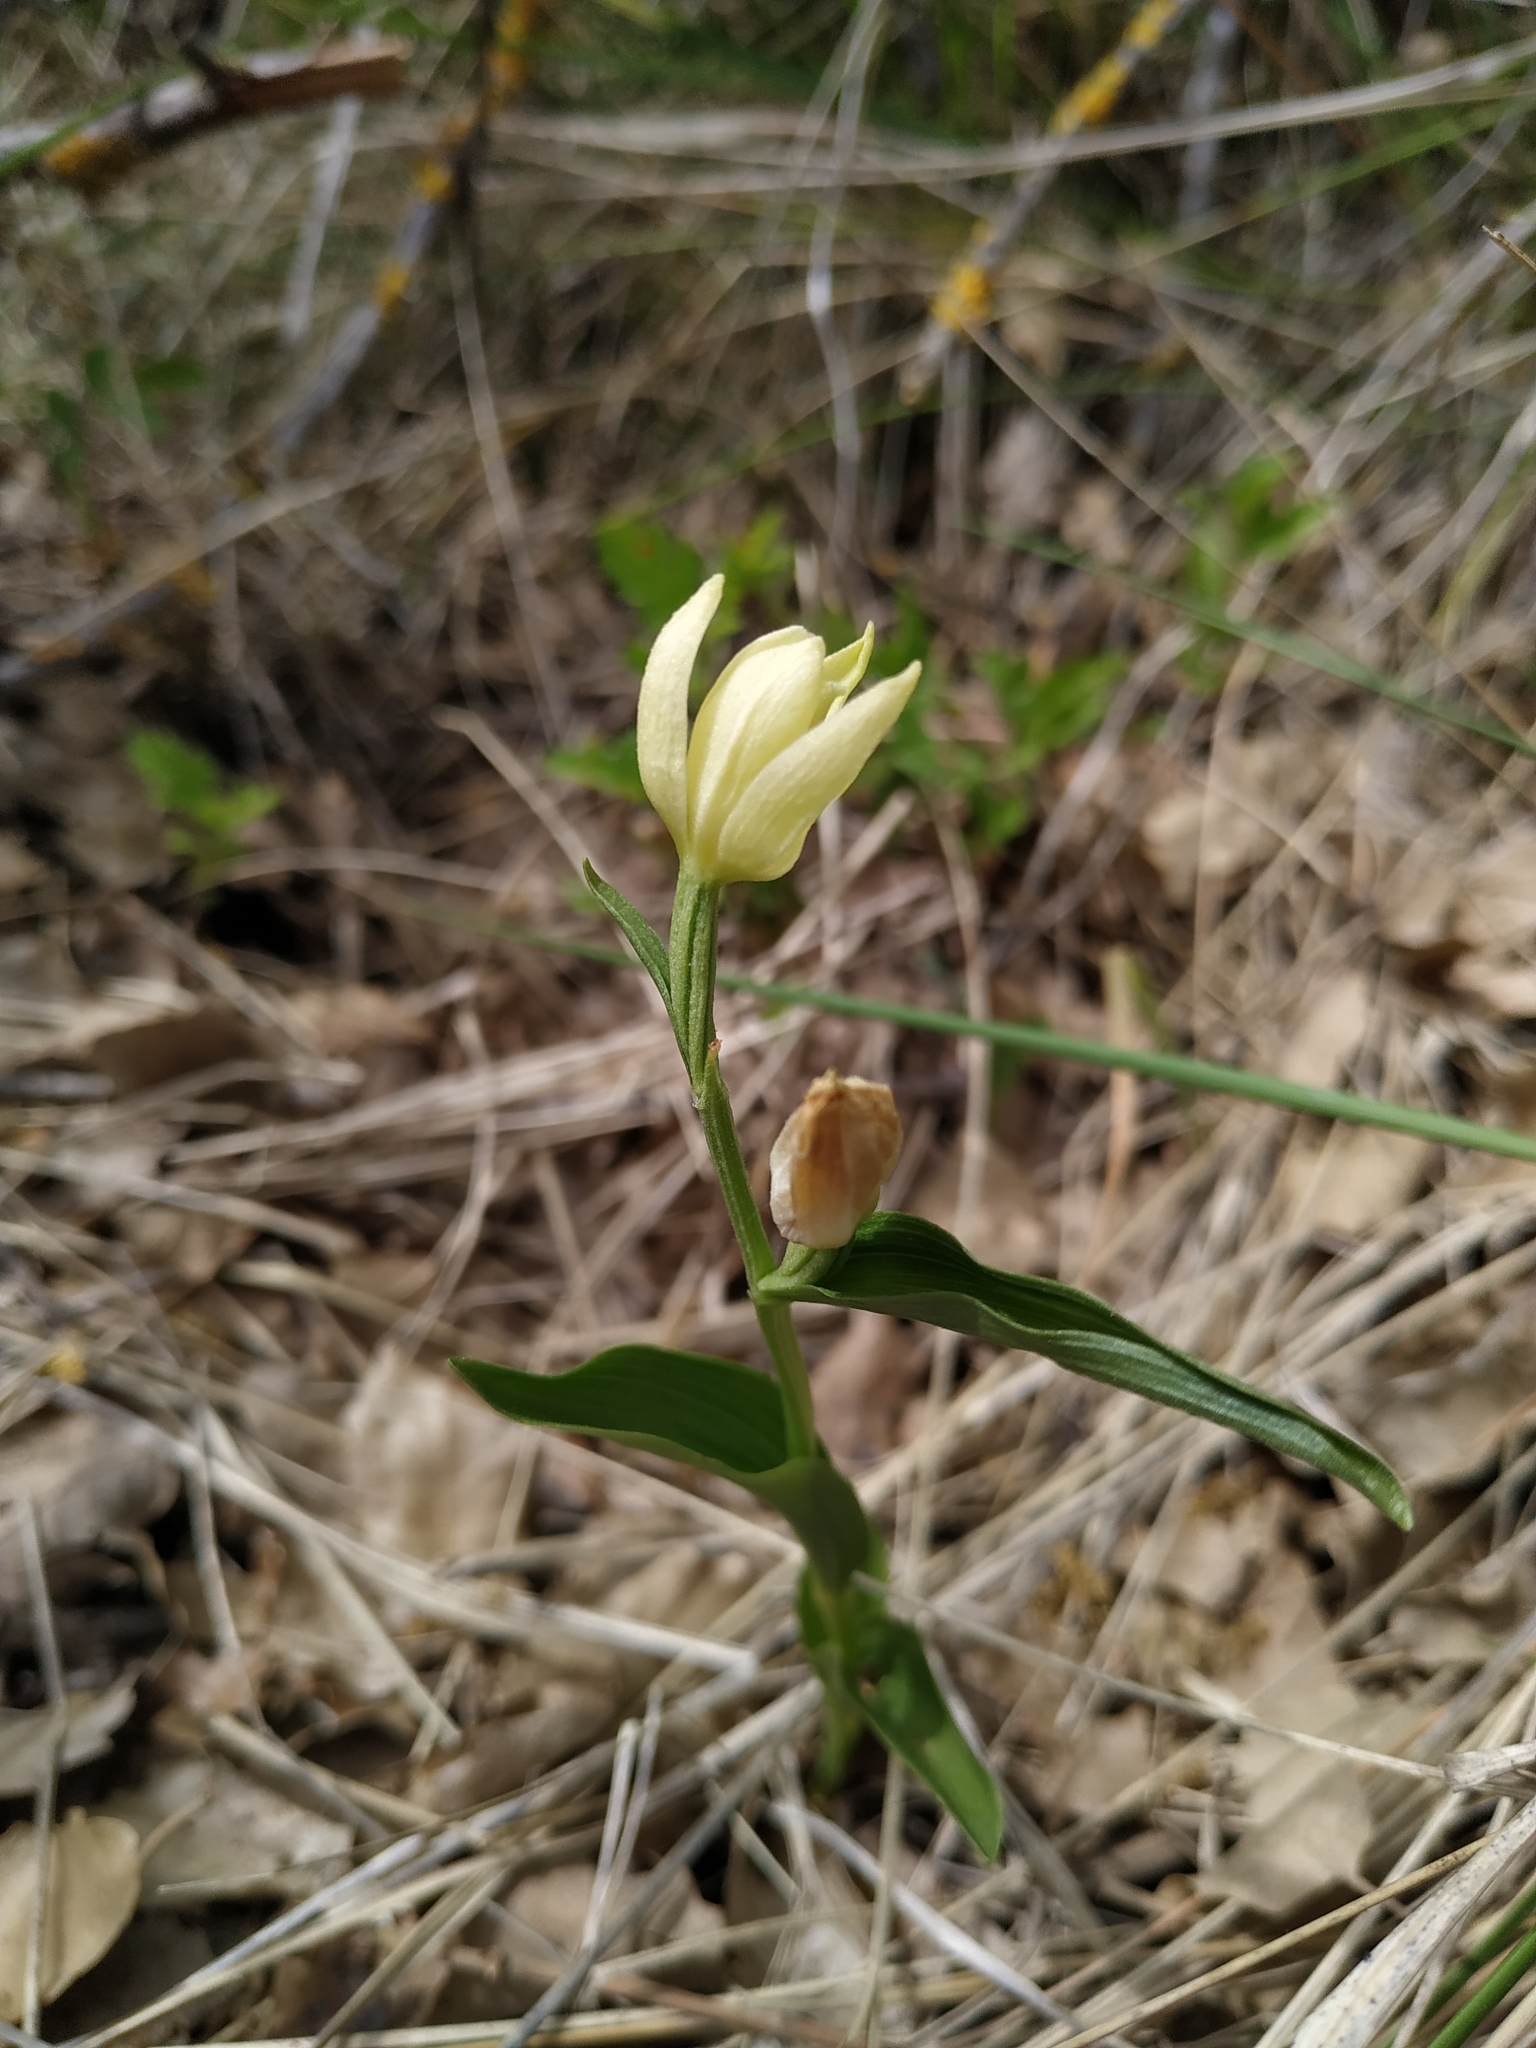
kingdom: Plantae
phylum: Tracheophyta
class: Liliopsida
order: Asparagales
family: Orchidaceae
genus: Cephalanthera
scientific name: Cephalanthera damasonium
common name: White helleborine
